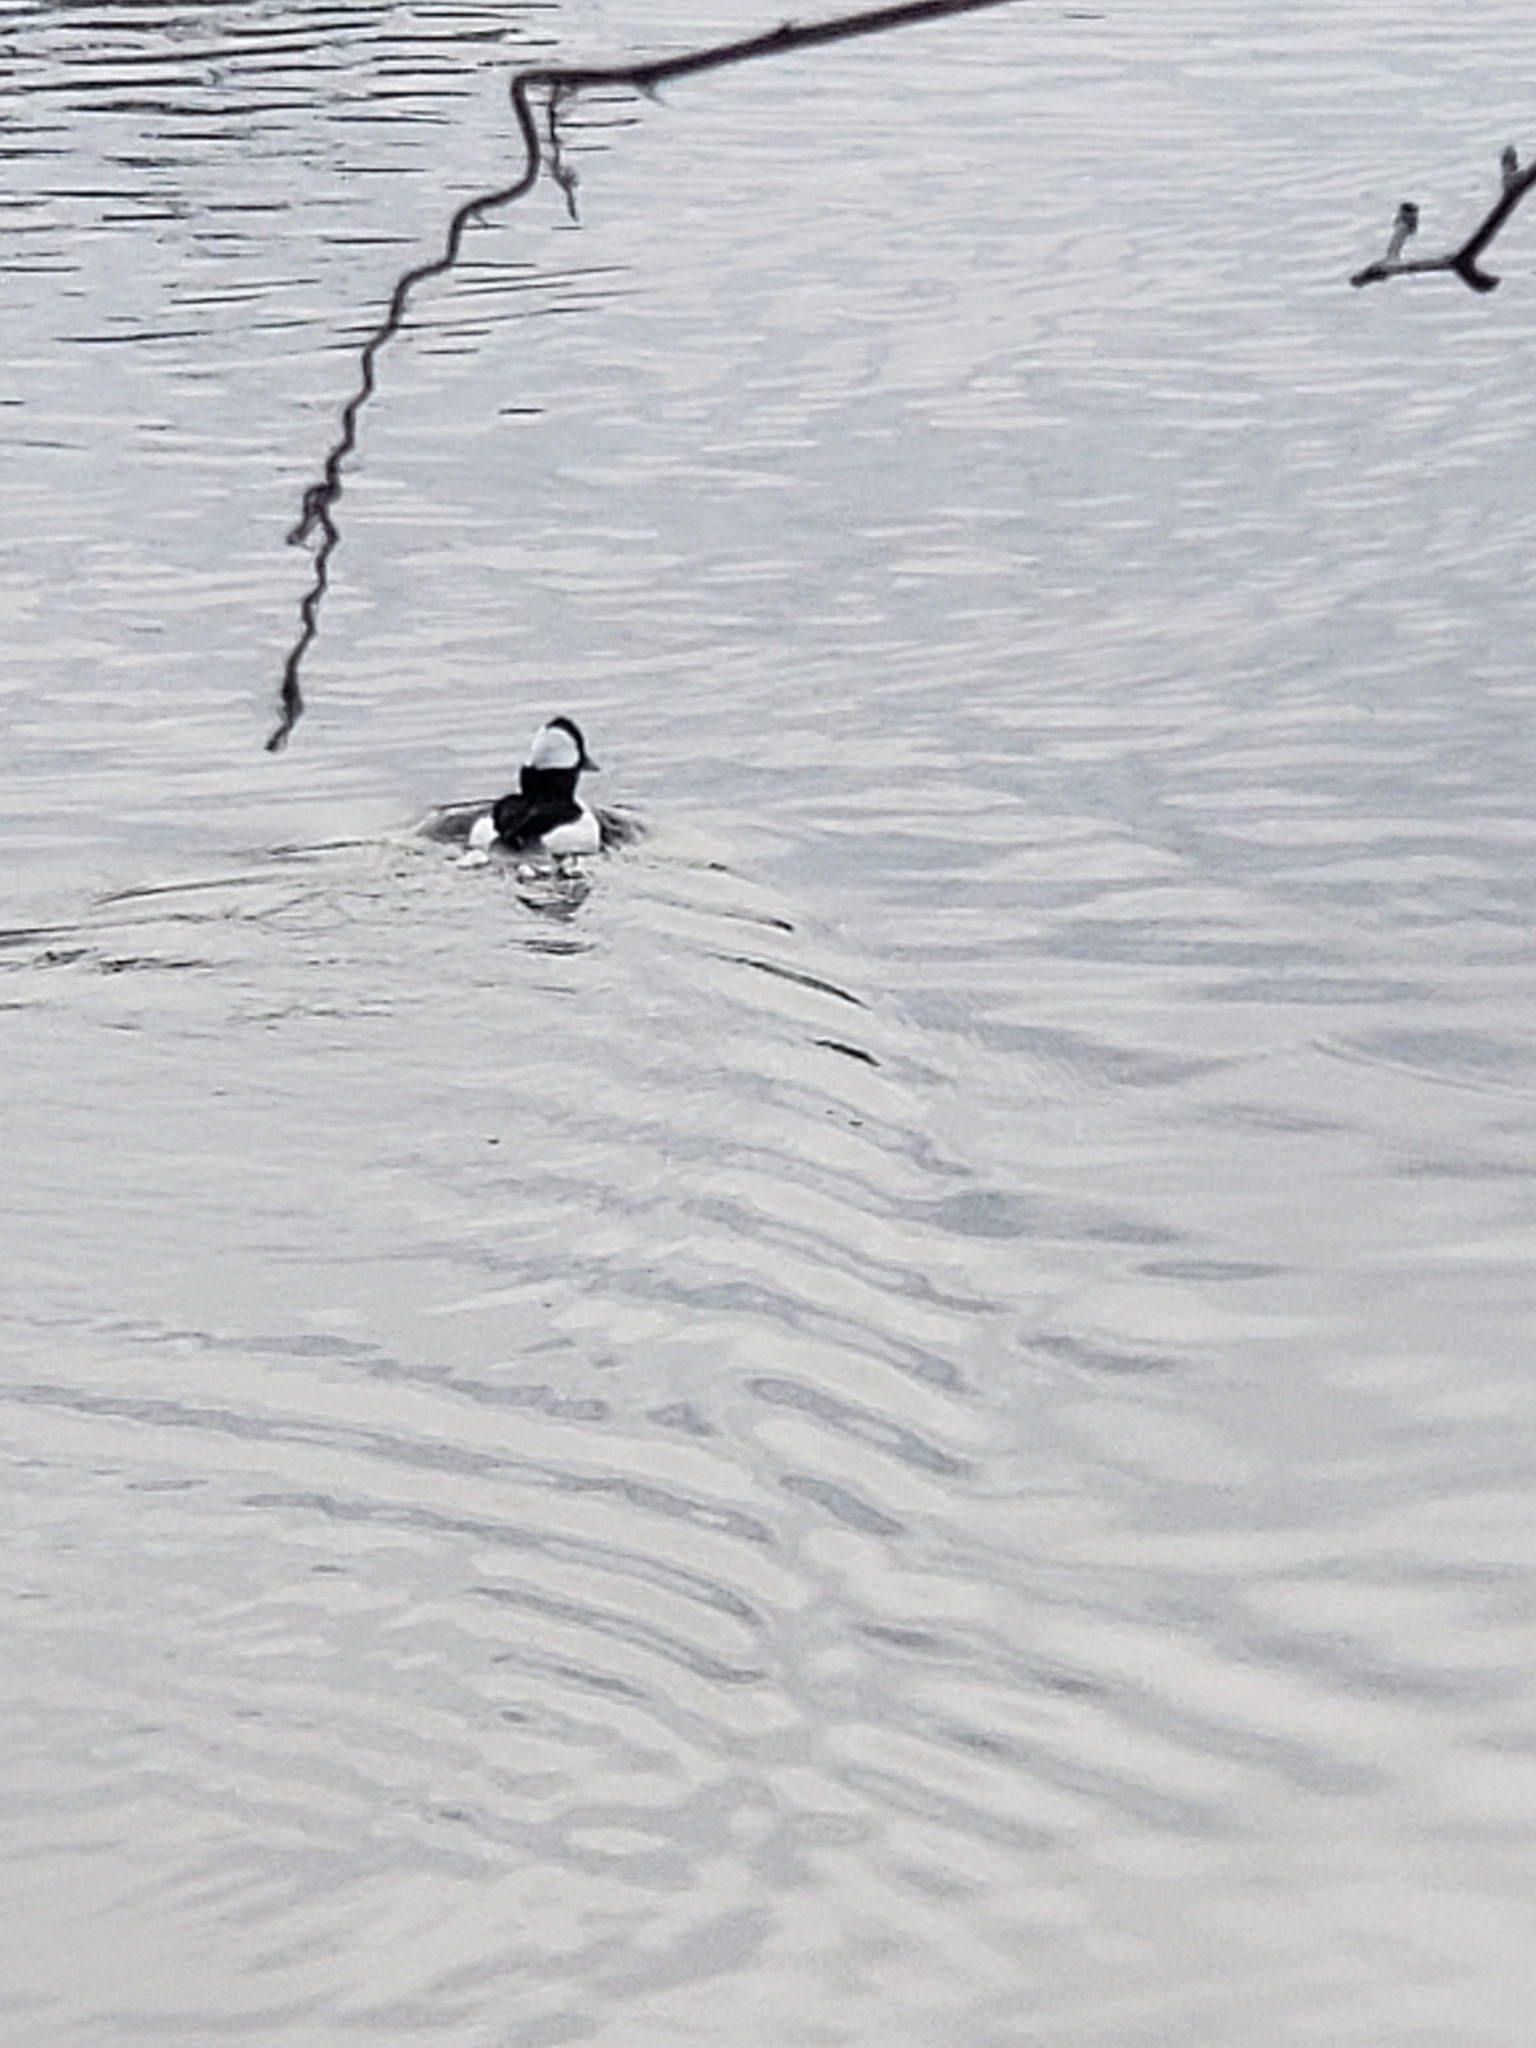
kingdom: Animalia
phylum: Chordata
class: Aves
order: Anseriformes
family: Anatidae
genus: Bucephala
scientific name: Bucephala albeola
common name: Bufflehead
